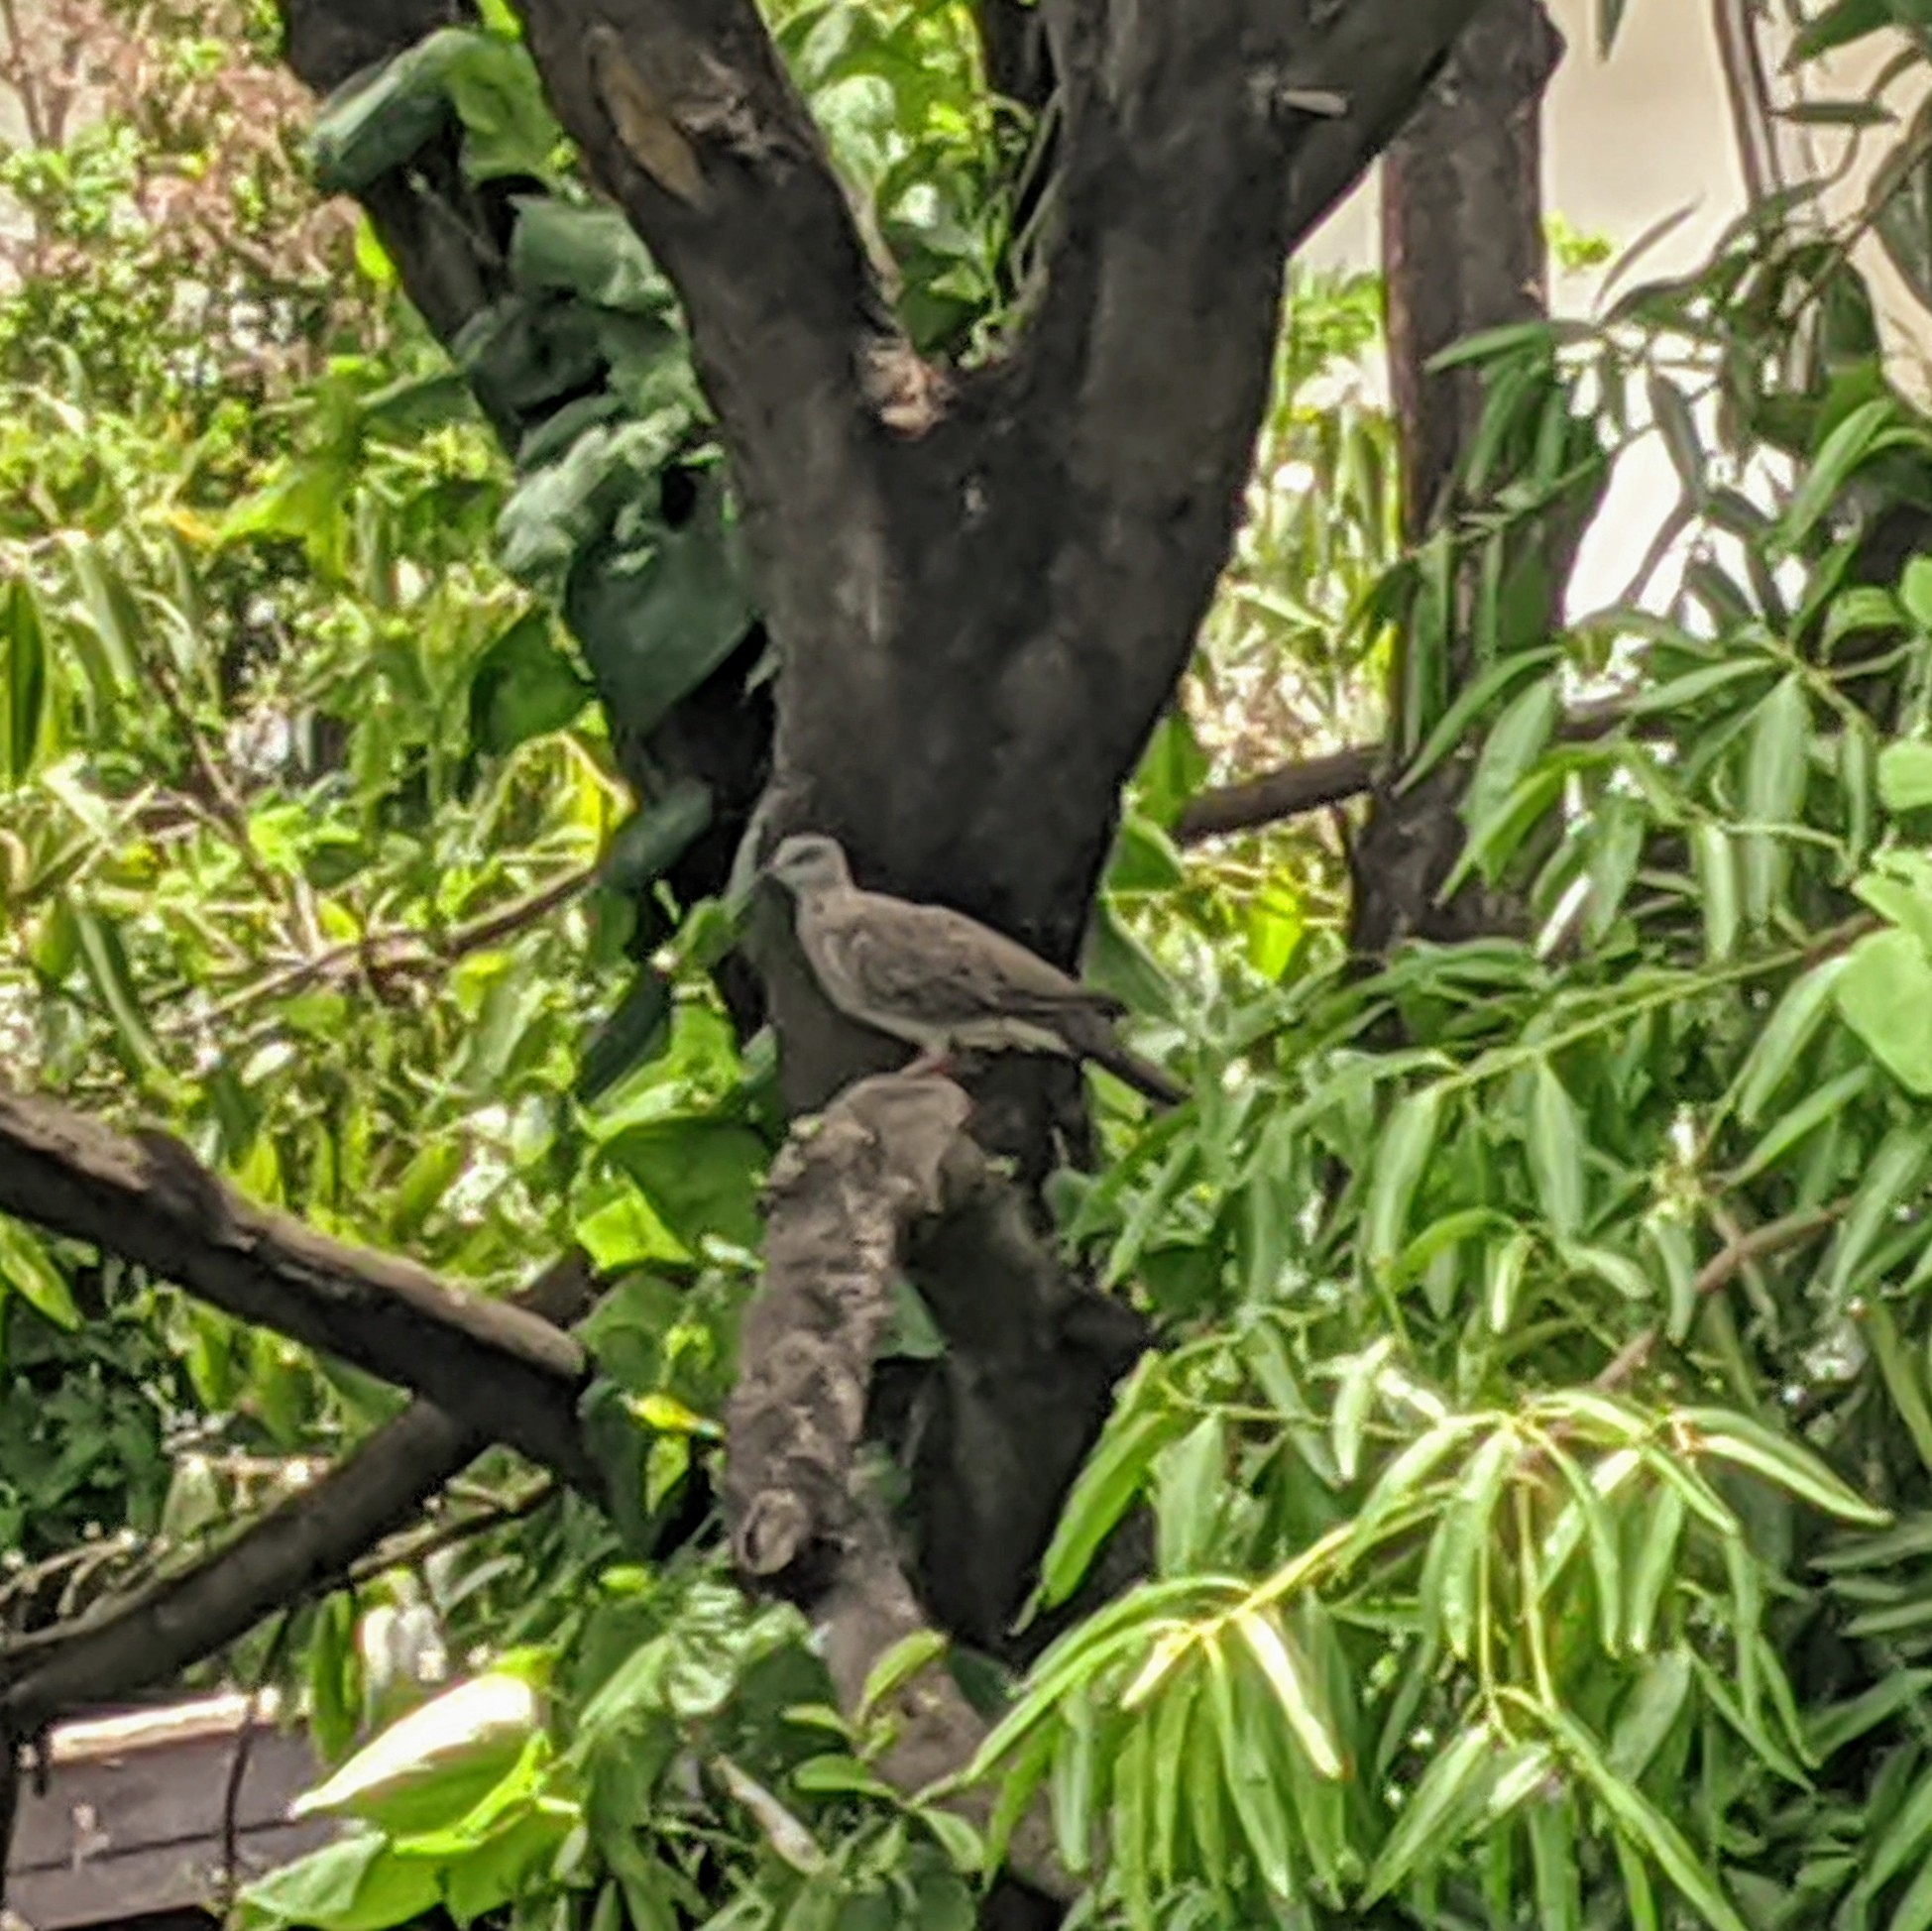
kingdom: Animalia
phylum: Chordata
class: Aves
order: Columbiformes
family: Columbidae
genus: Spilopelia
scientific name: Spilopelia chinensis
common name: Spotted dove
